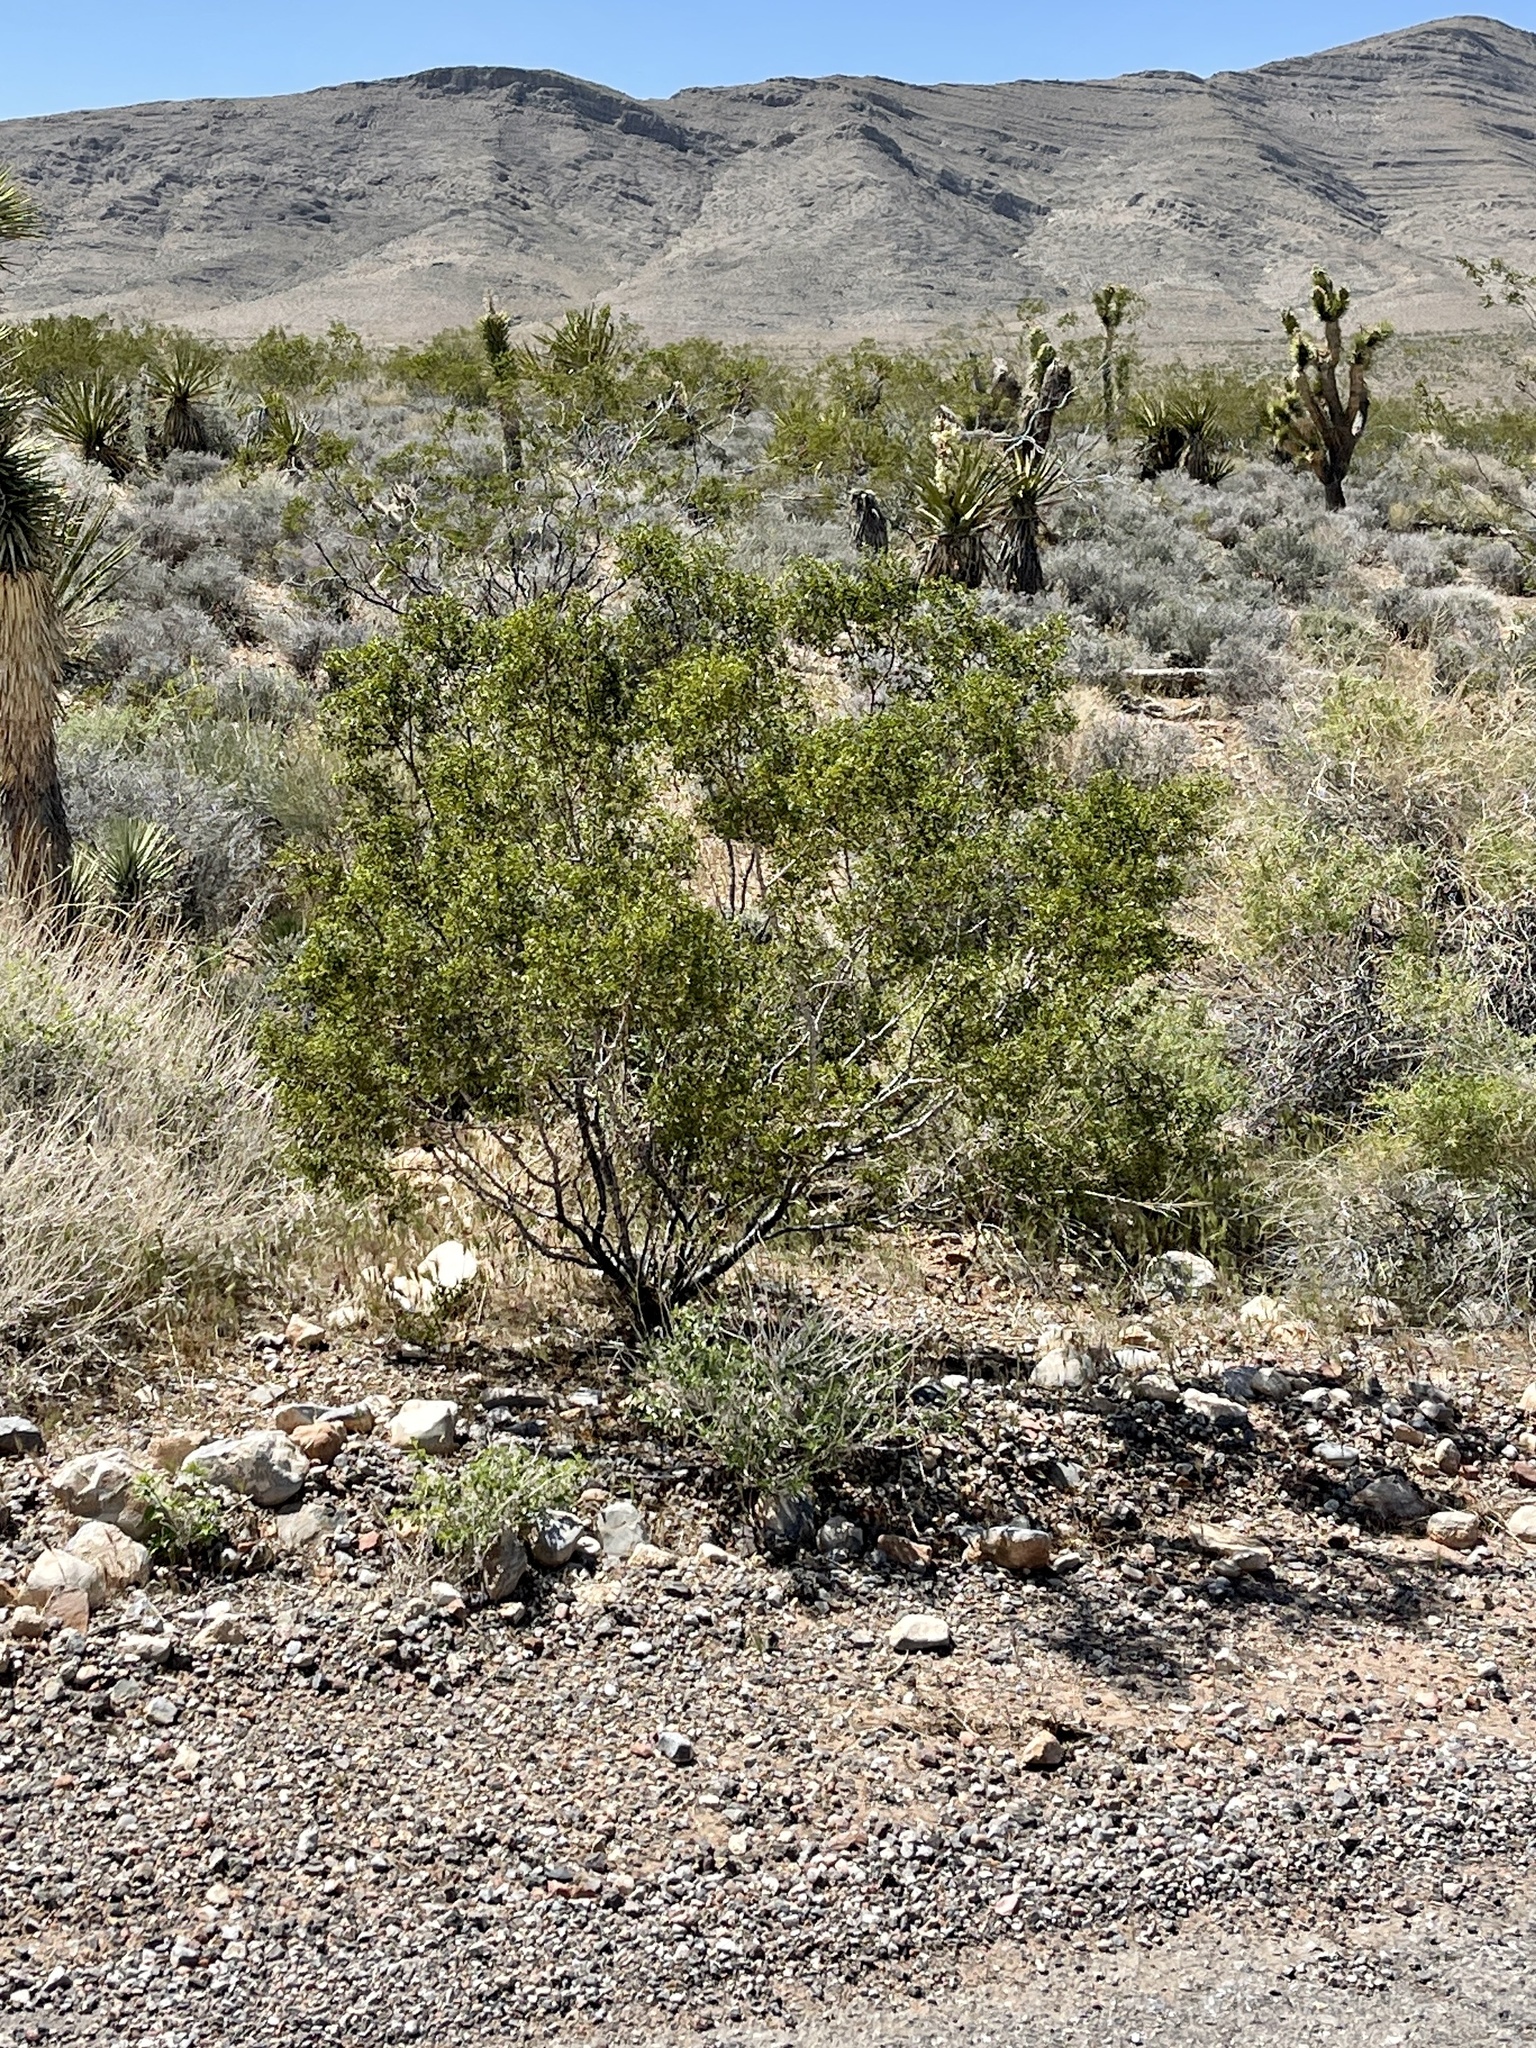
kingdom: Plantae
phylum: Tracheophyta
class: Magnoliopsida
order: Zygophyllales
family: Zygophyllaceae
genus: Larrea
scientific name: Larrea tridentata
